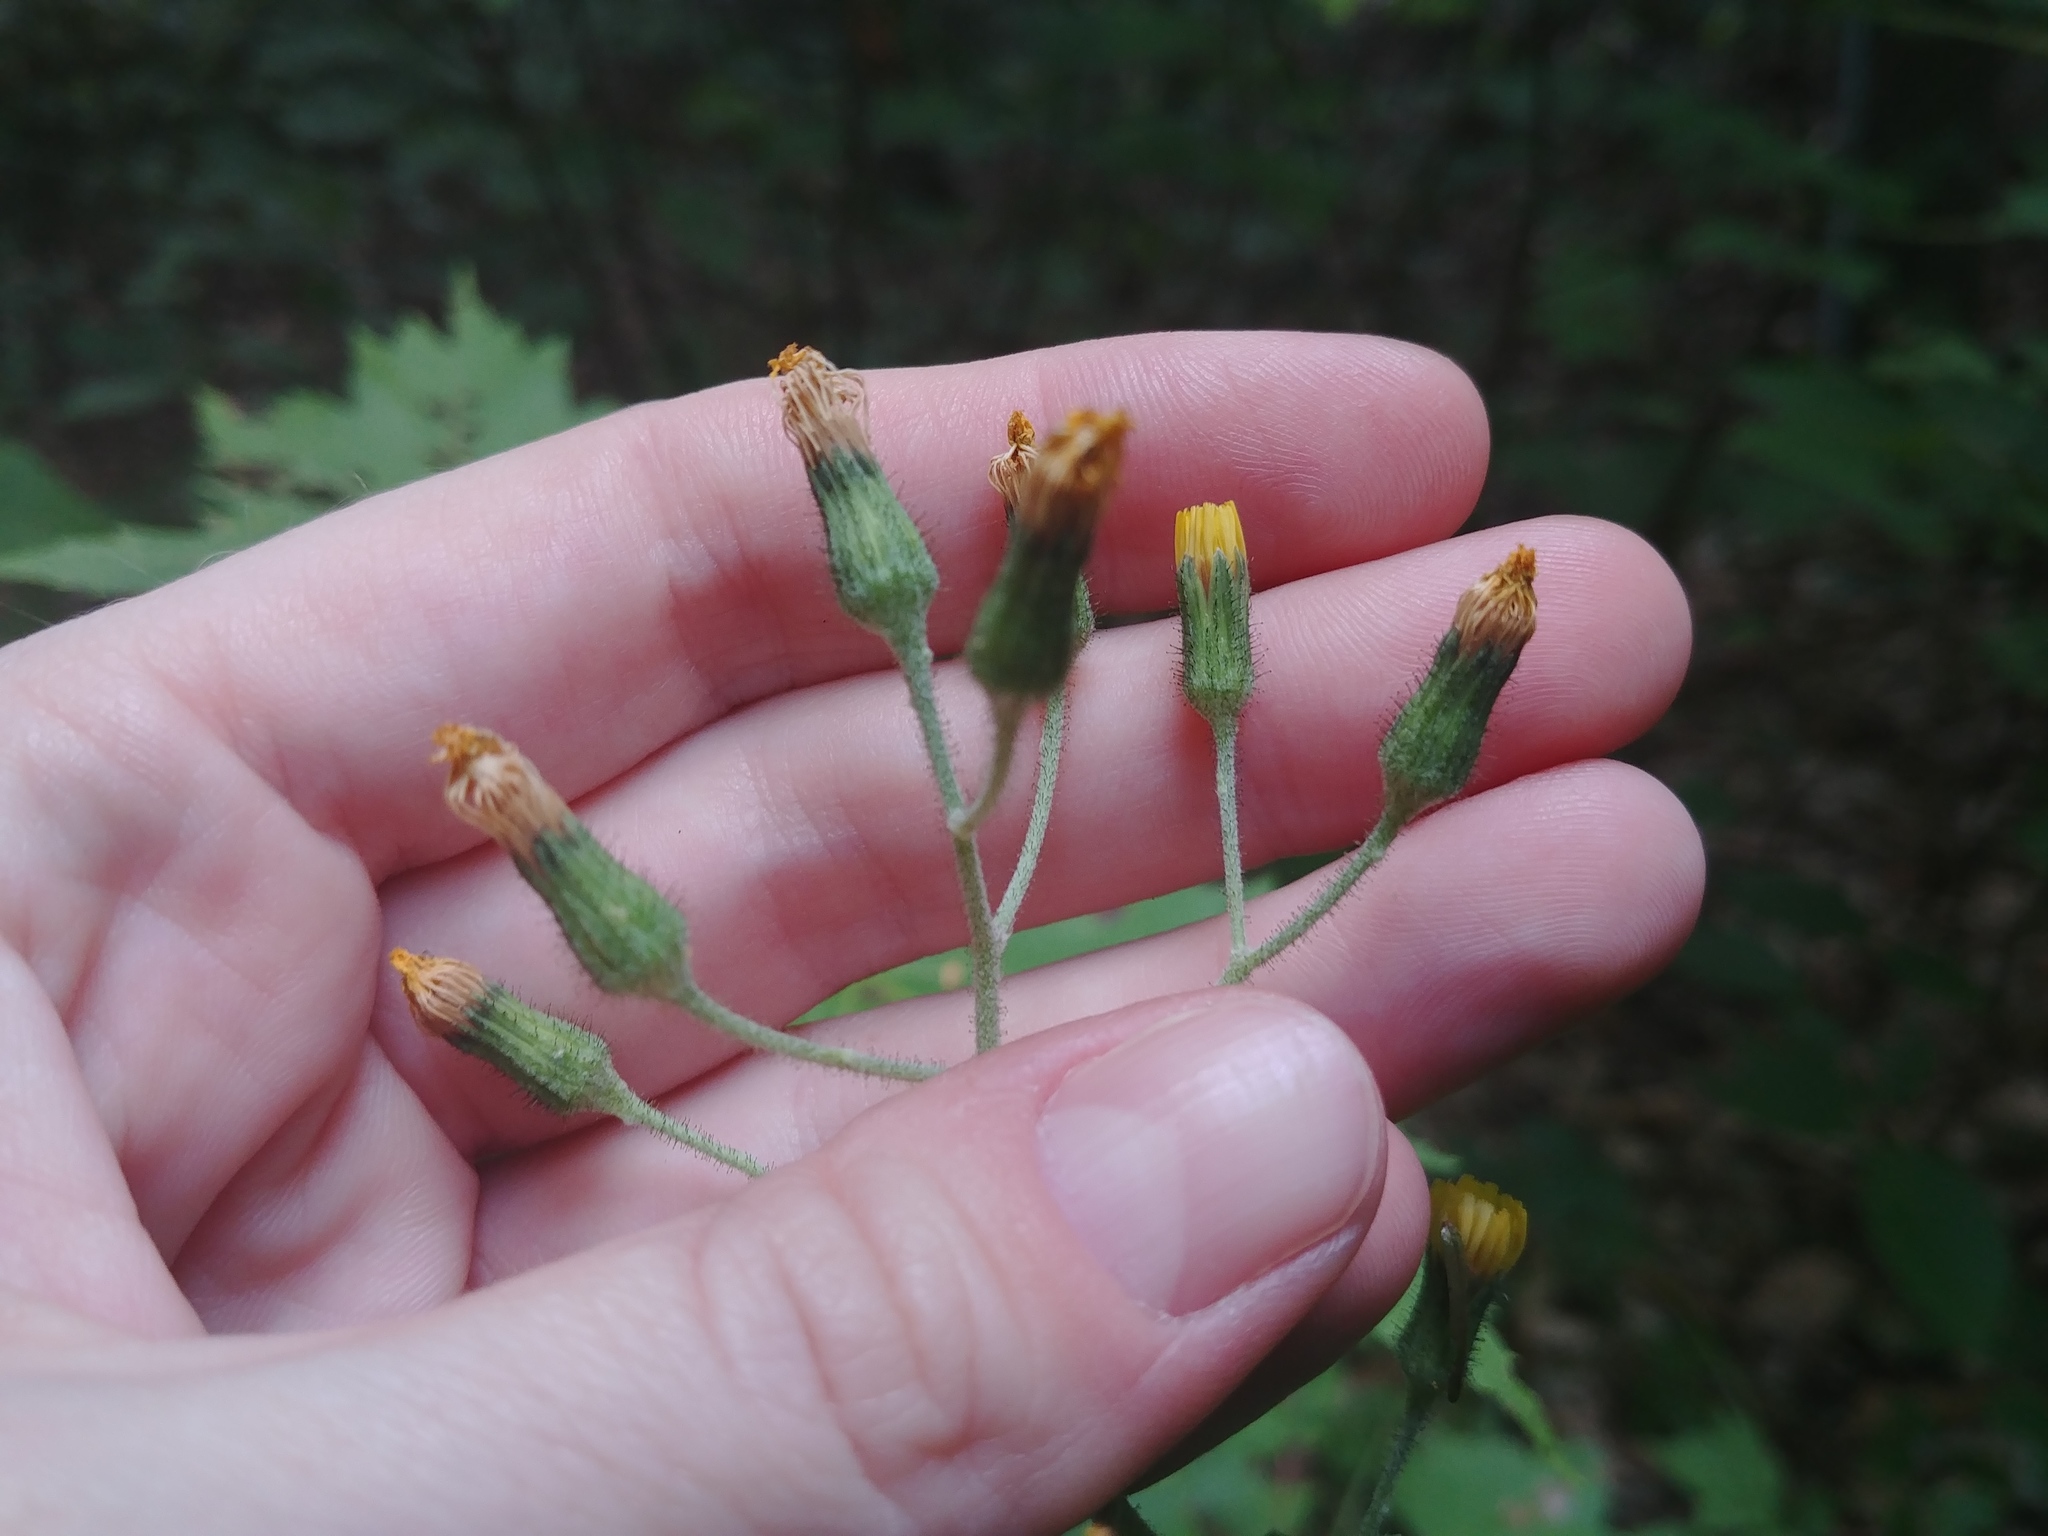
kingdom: Plantae
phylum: Tracheophyta
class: Magnoliopsida
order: Asterales
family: Asteraceae
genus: Hieracium
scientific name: Hieracium scabrum
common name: Rough hawkweed
